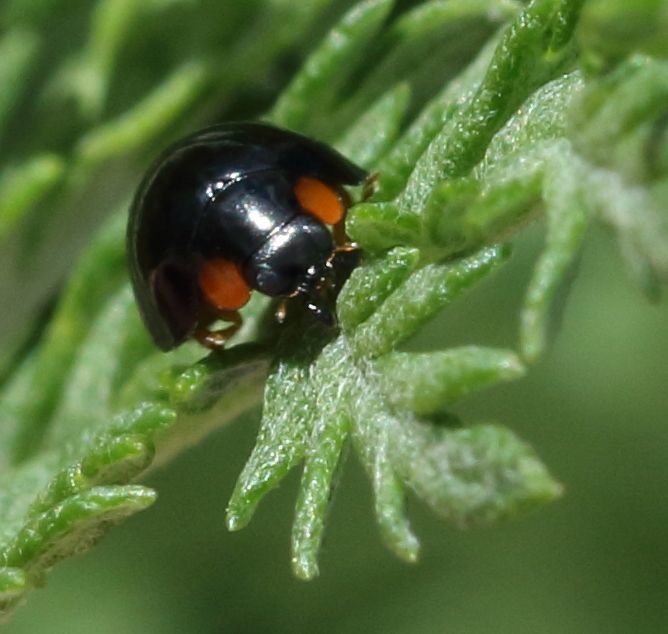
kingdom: Animalia
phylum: Arthropoda
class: Insecta
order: Coleoptera
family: Coccinellidae
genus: Exochomus
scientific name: Exochomus flavipes
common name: Ladybird beetle
